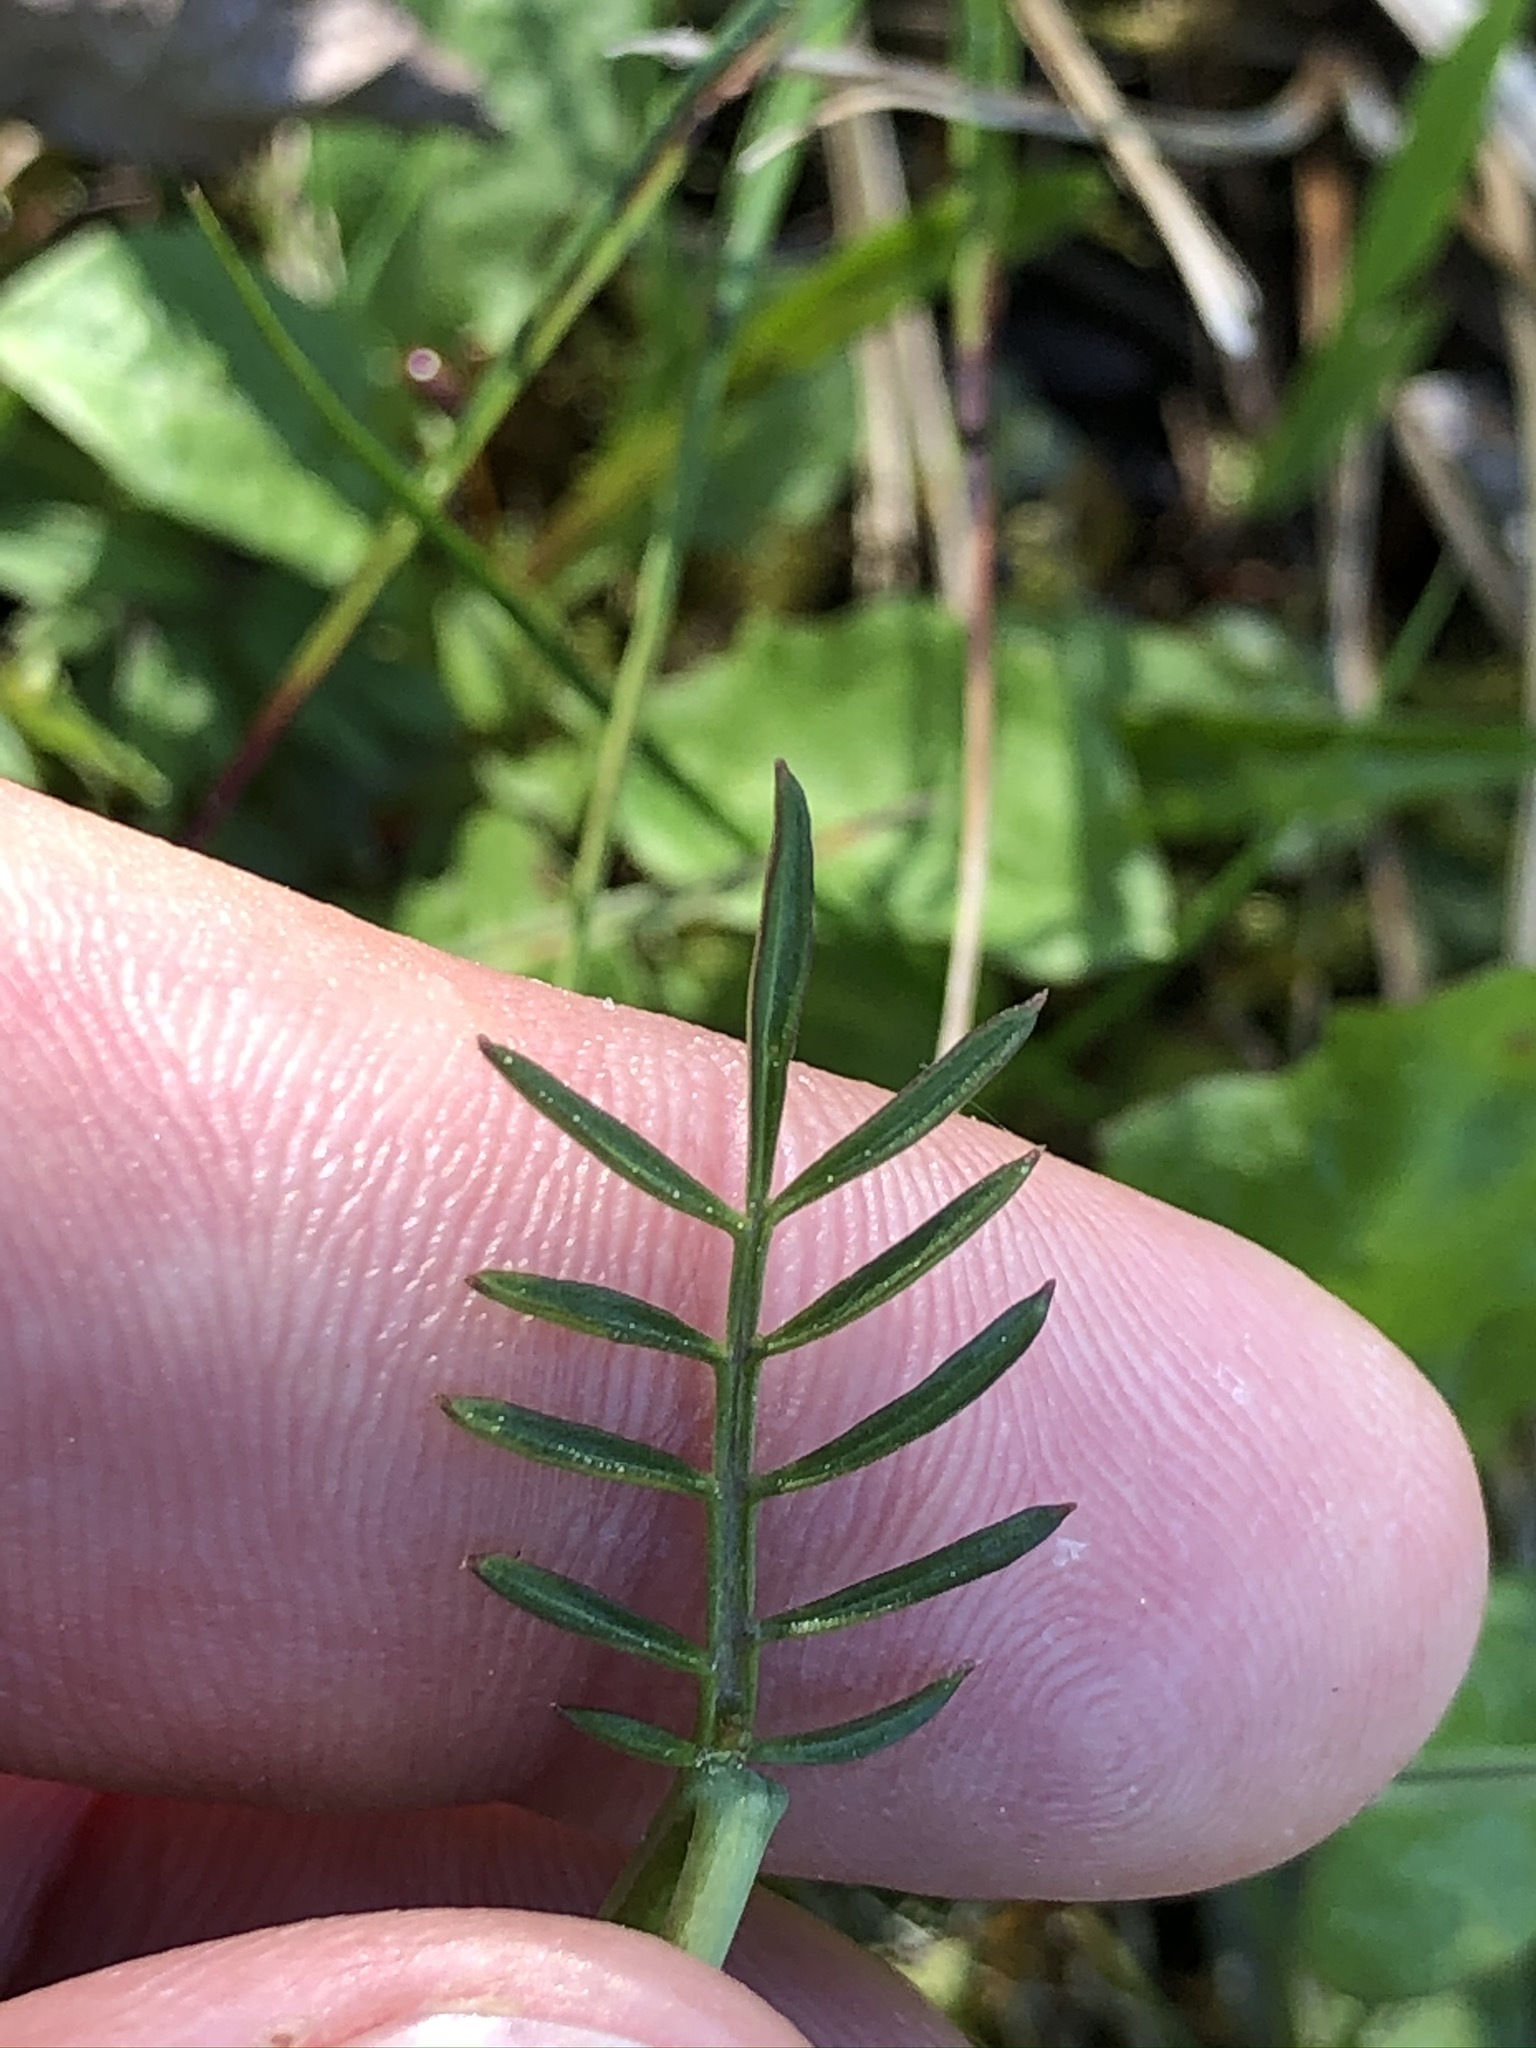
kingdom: Plantae
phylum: Tracheophyta
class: Magnoliopsida
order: Brassicales
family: Brassicaceae
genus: Cardamine
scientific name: Cardamine pratensis
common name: Cuckoo flower
